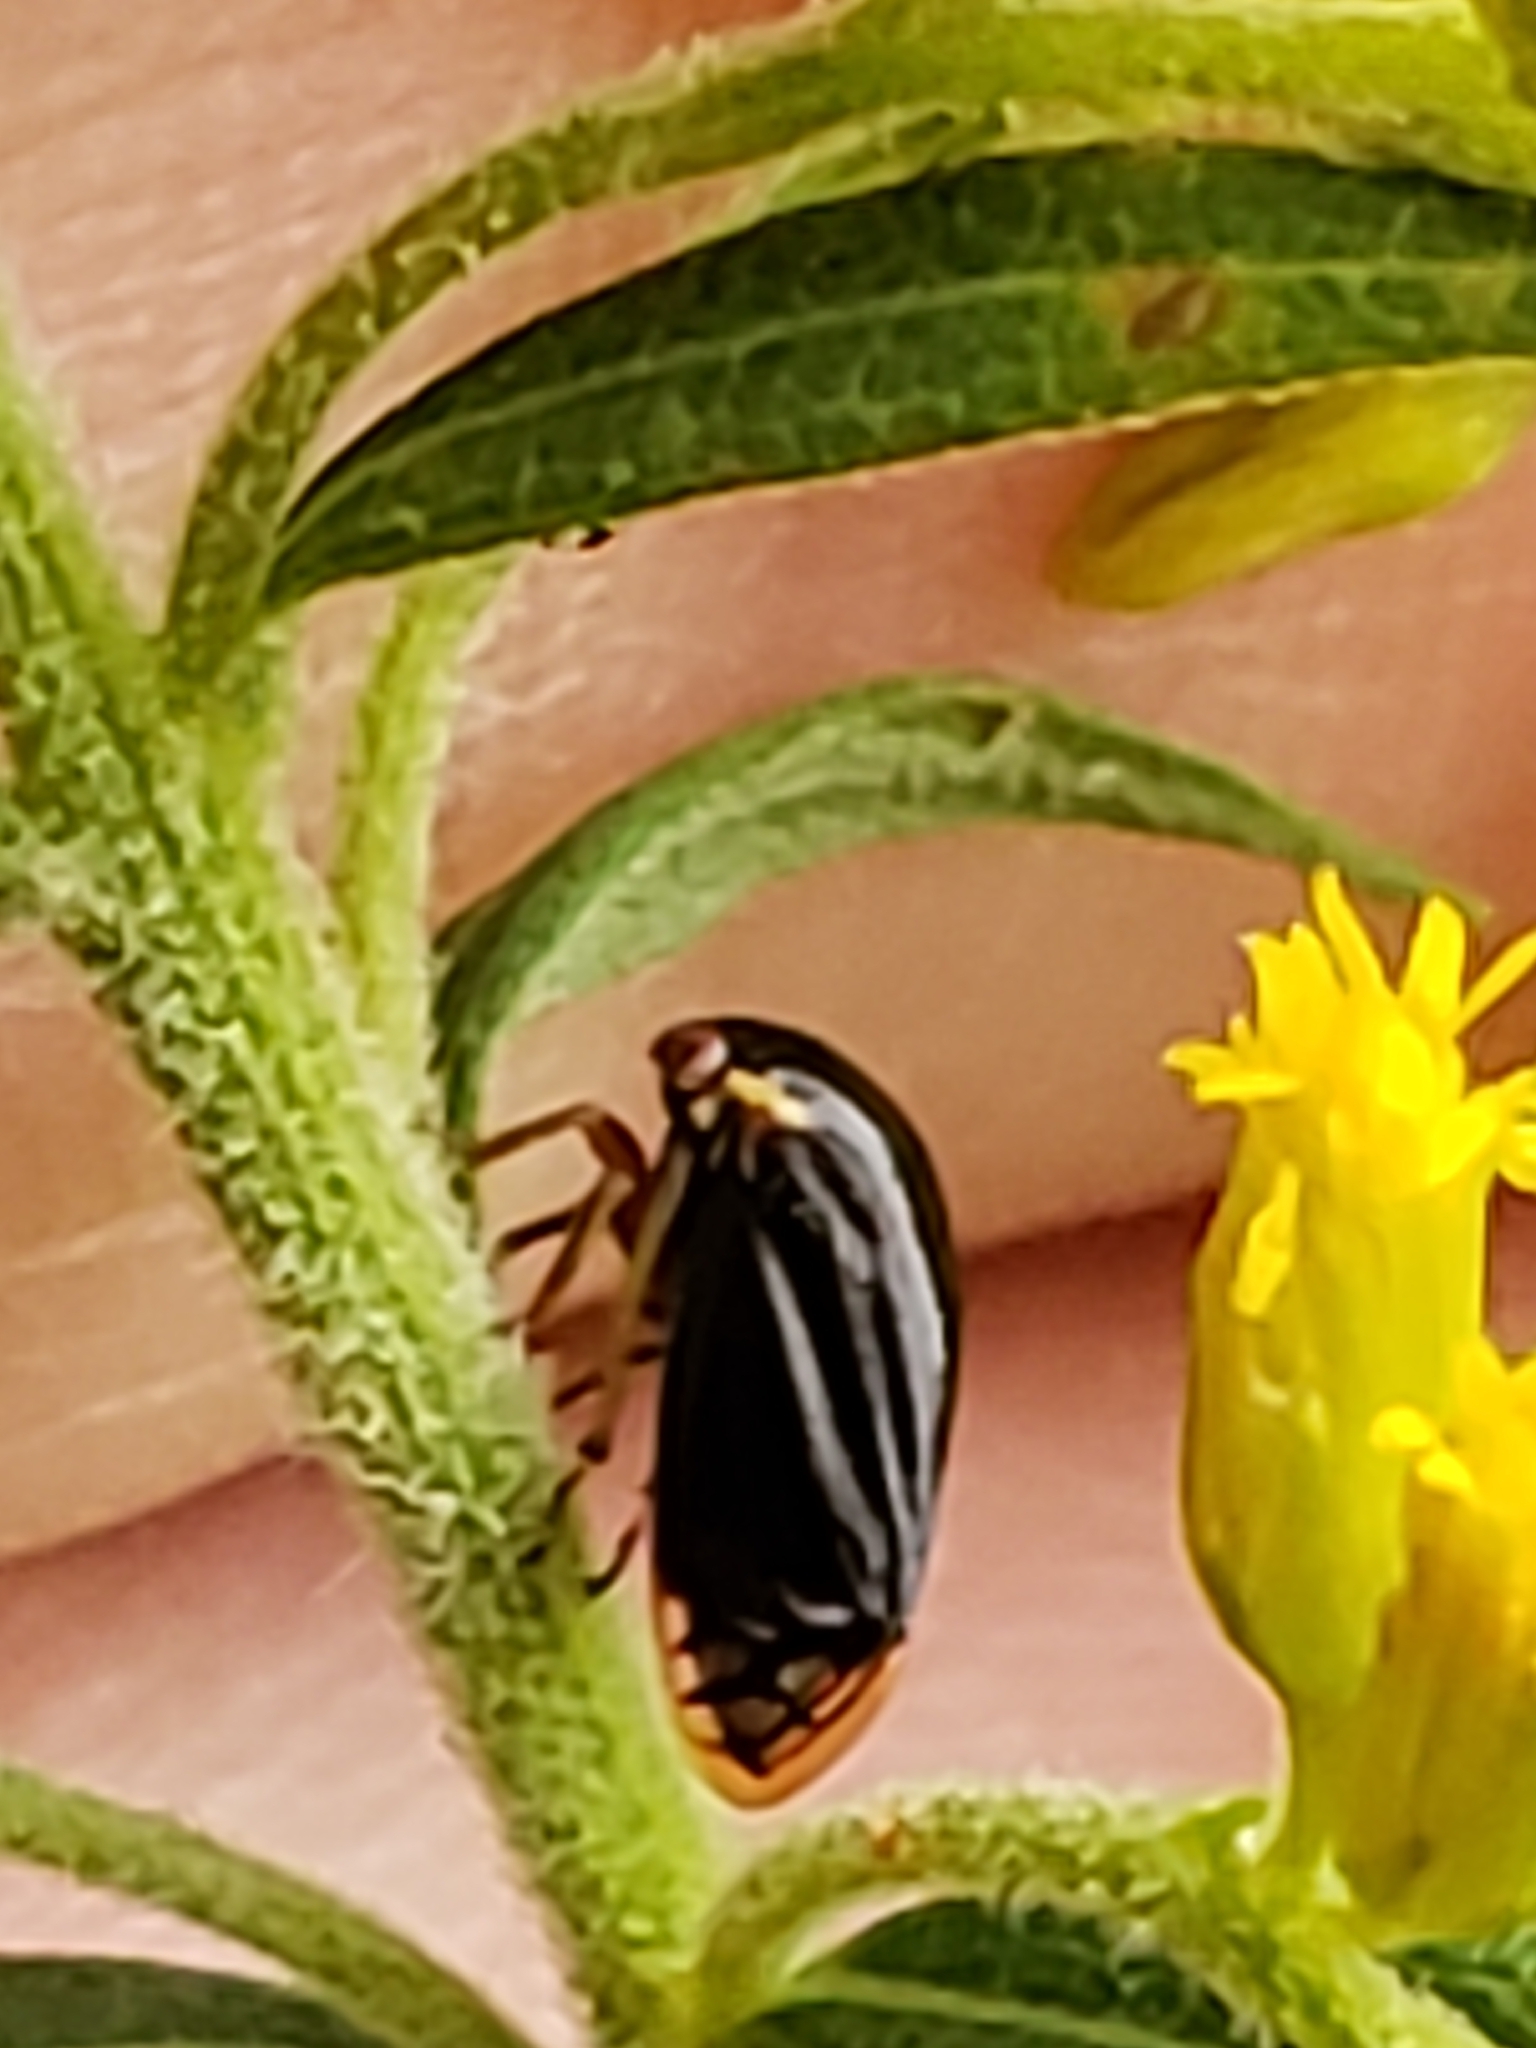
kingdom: Animalia
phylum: Arthropoda
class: Insecta
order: Hemiptera
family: Membracidae
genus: Acutalis
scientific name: Acutalis tartarea
